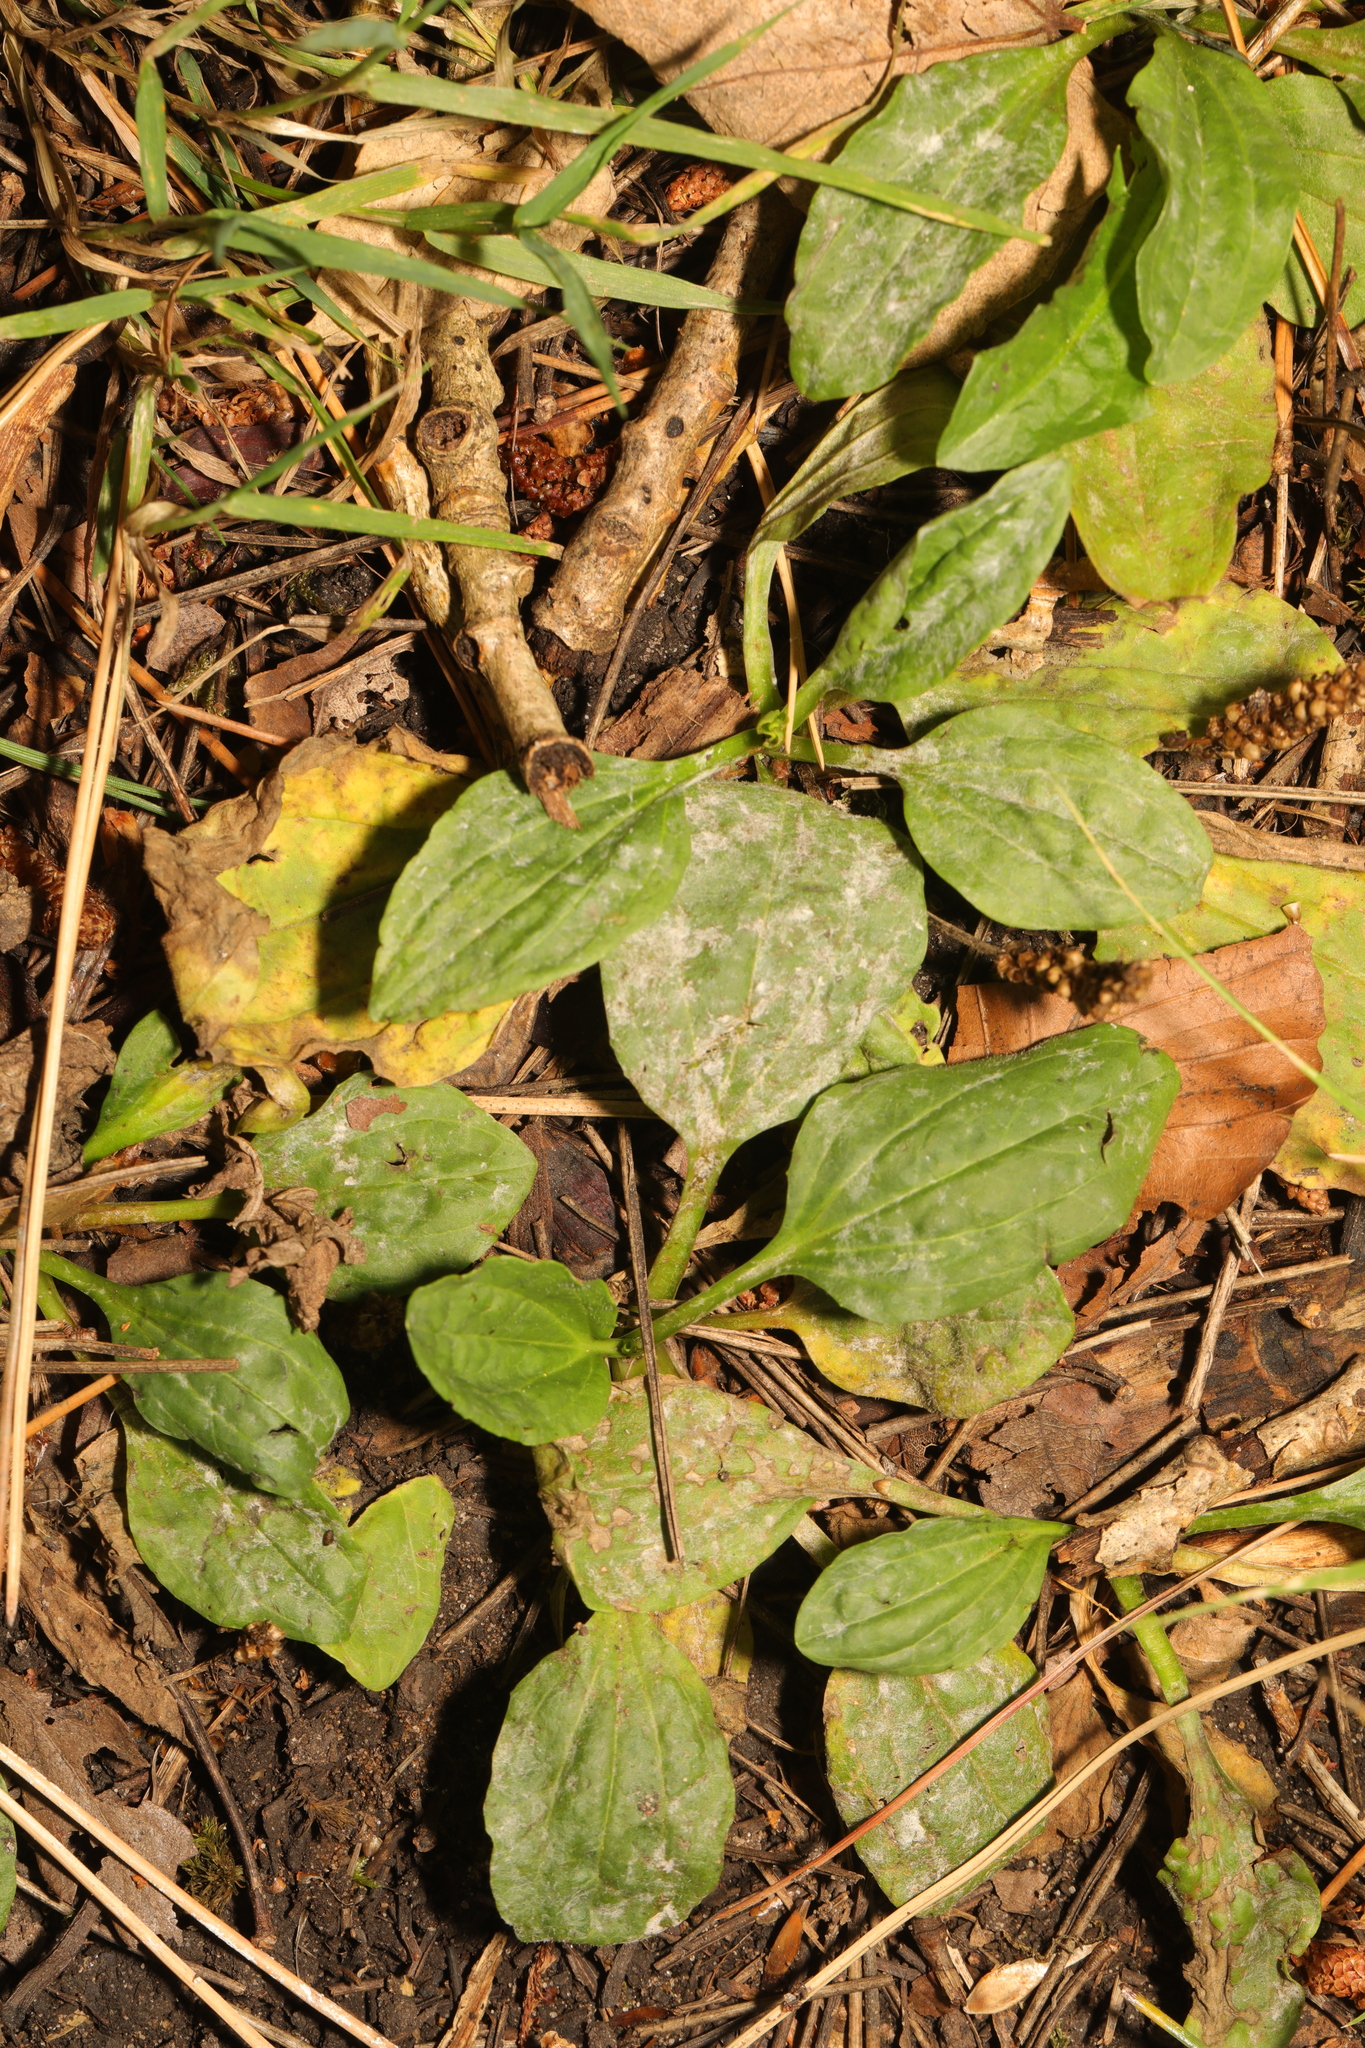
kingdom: Plantae
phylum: Tracheophyta
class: Magnoliopsida
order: Lamiales
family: Plantaginaceae
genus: Plantago
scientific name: Plantago major
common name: Common plantain
